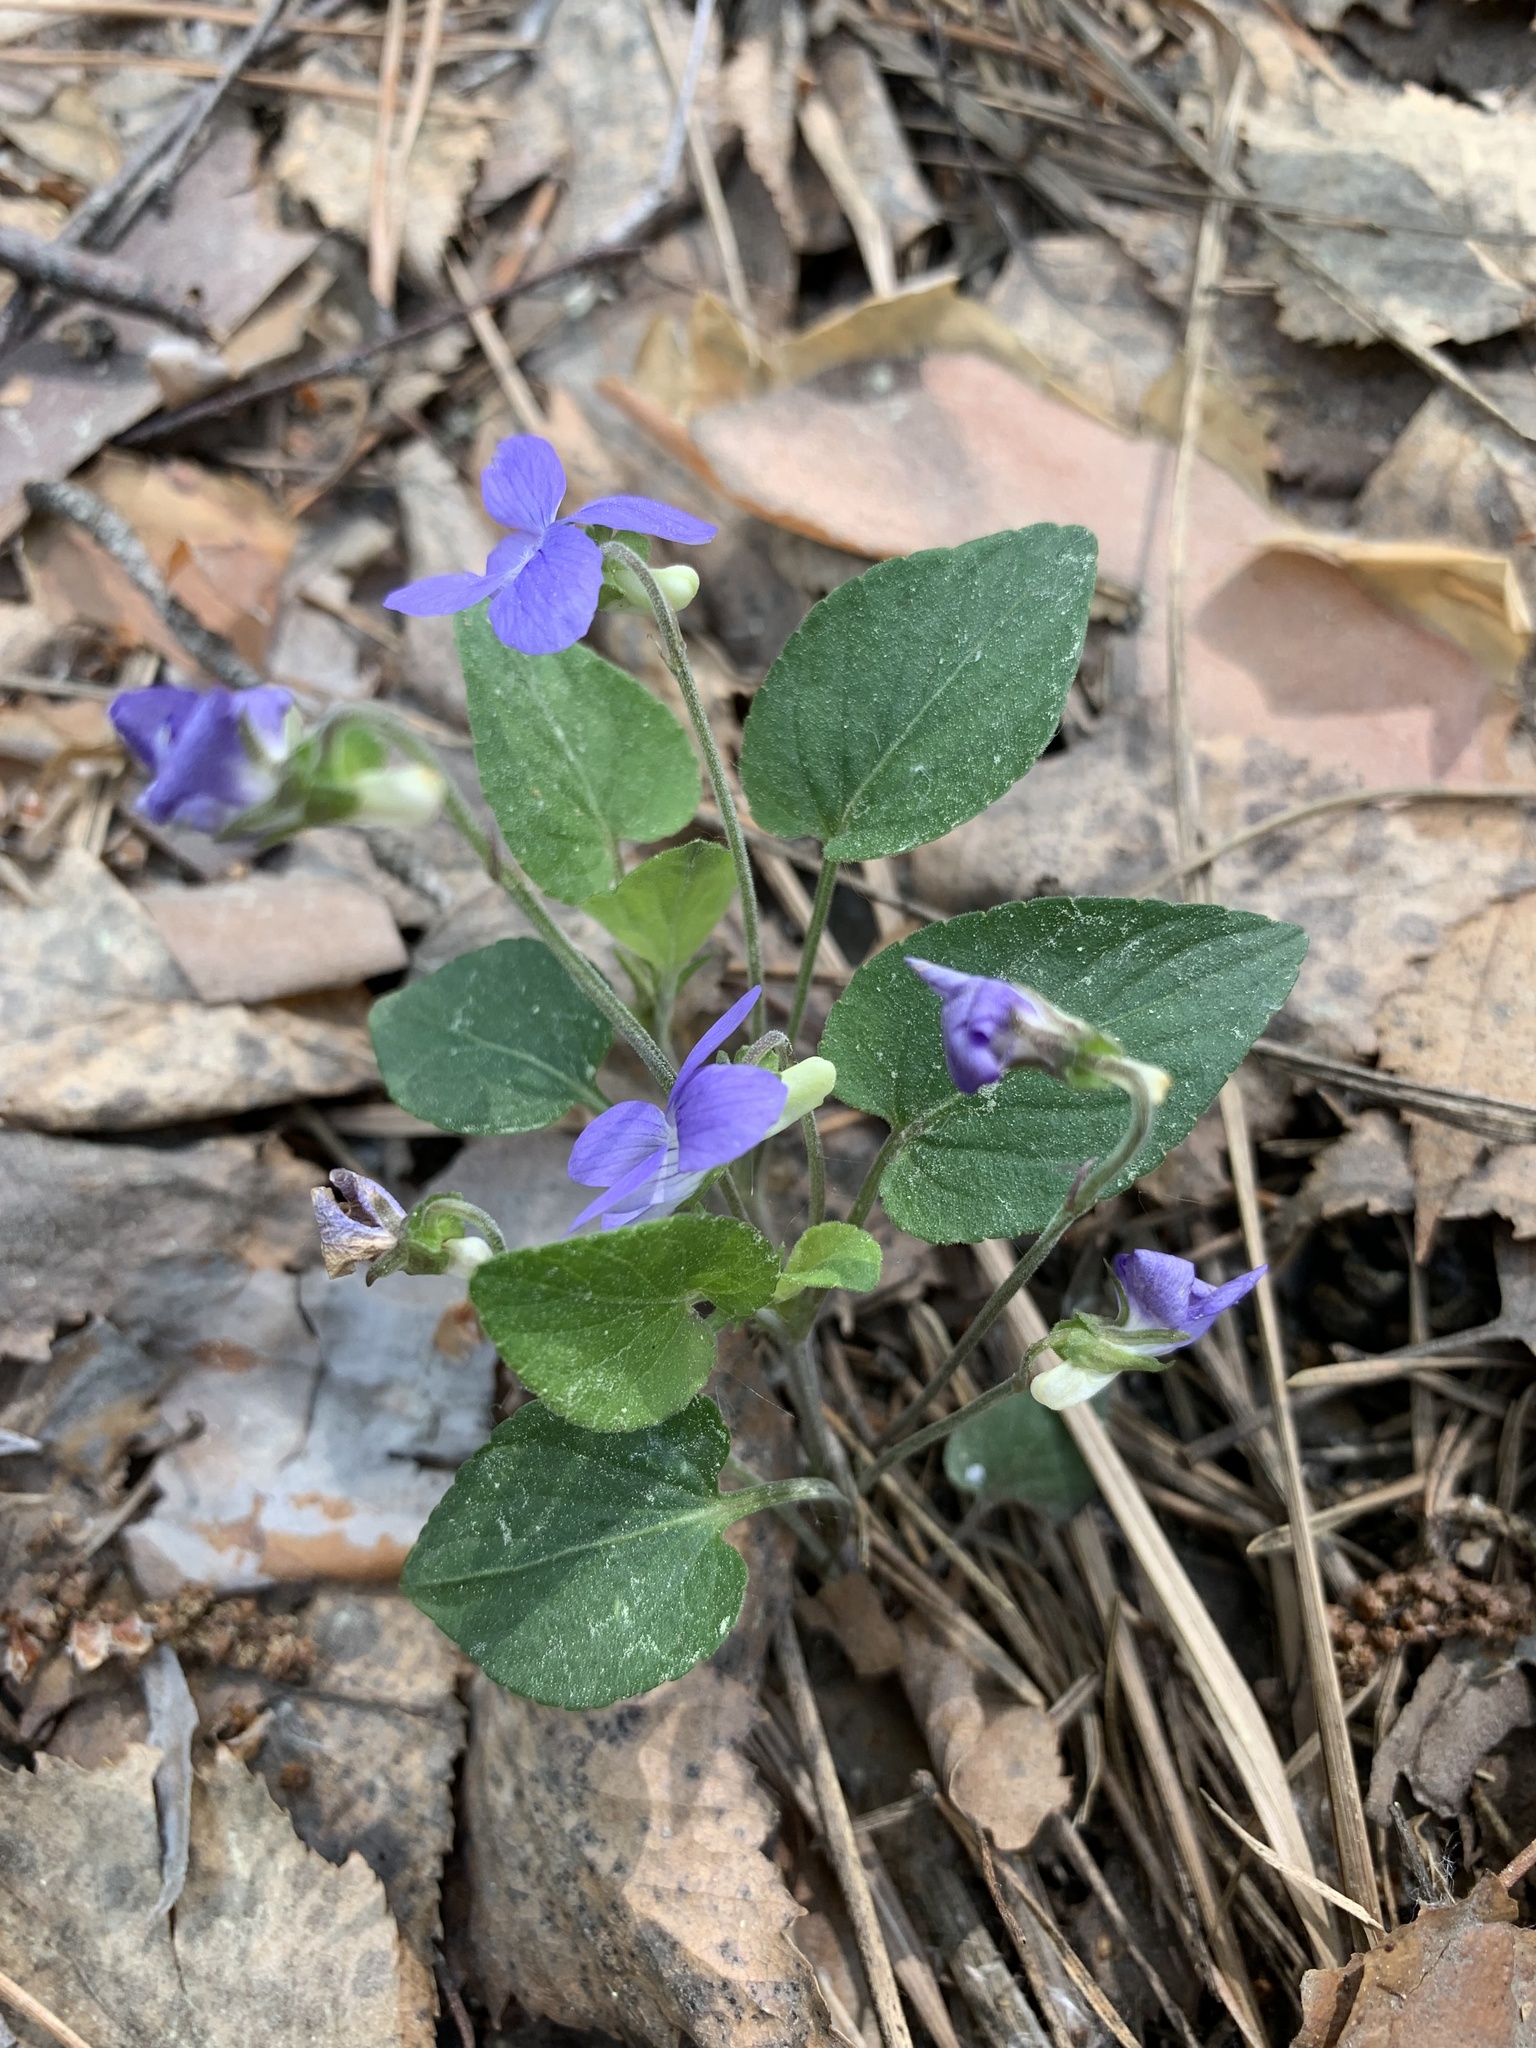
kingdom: Plantae
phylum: Tracheophyta
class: Magnoliopsida
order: Malpighiales
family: Violaceae
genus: Viola
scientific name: Viola rupestris
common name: Teesdale violet
